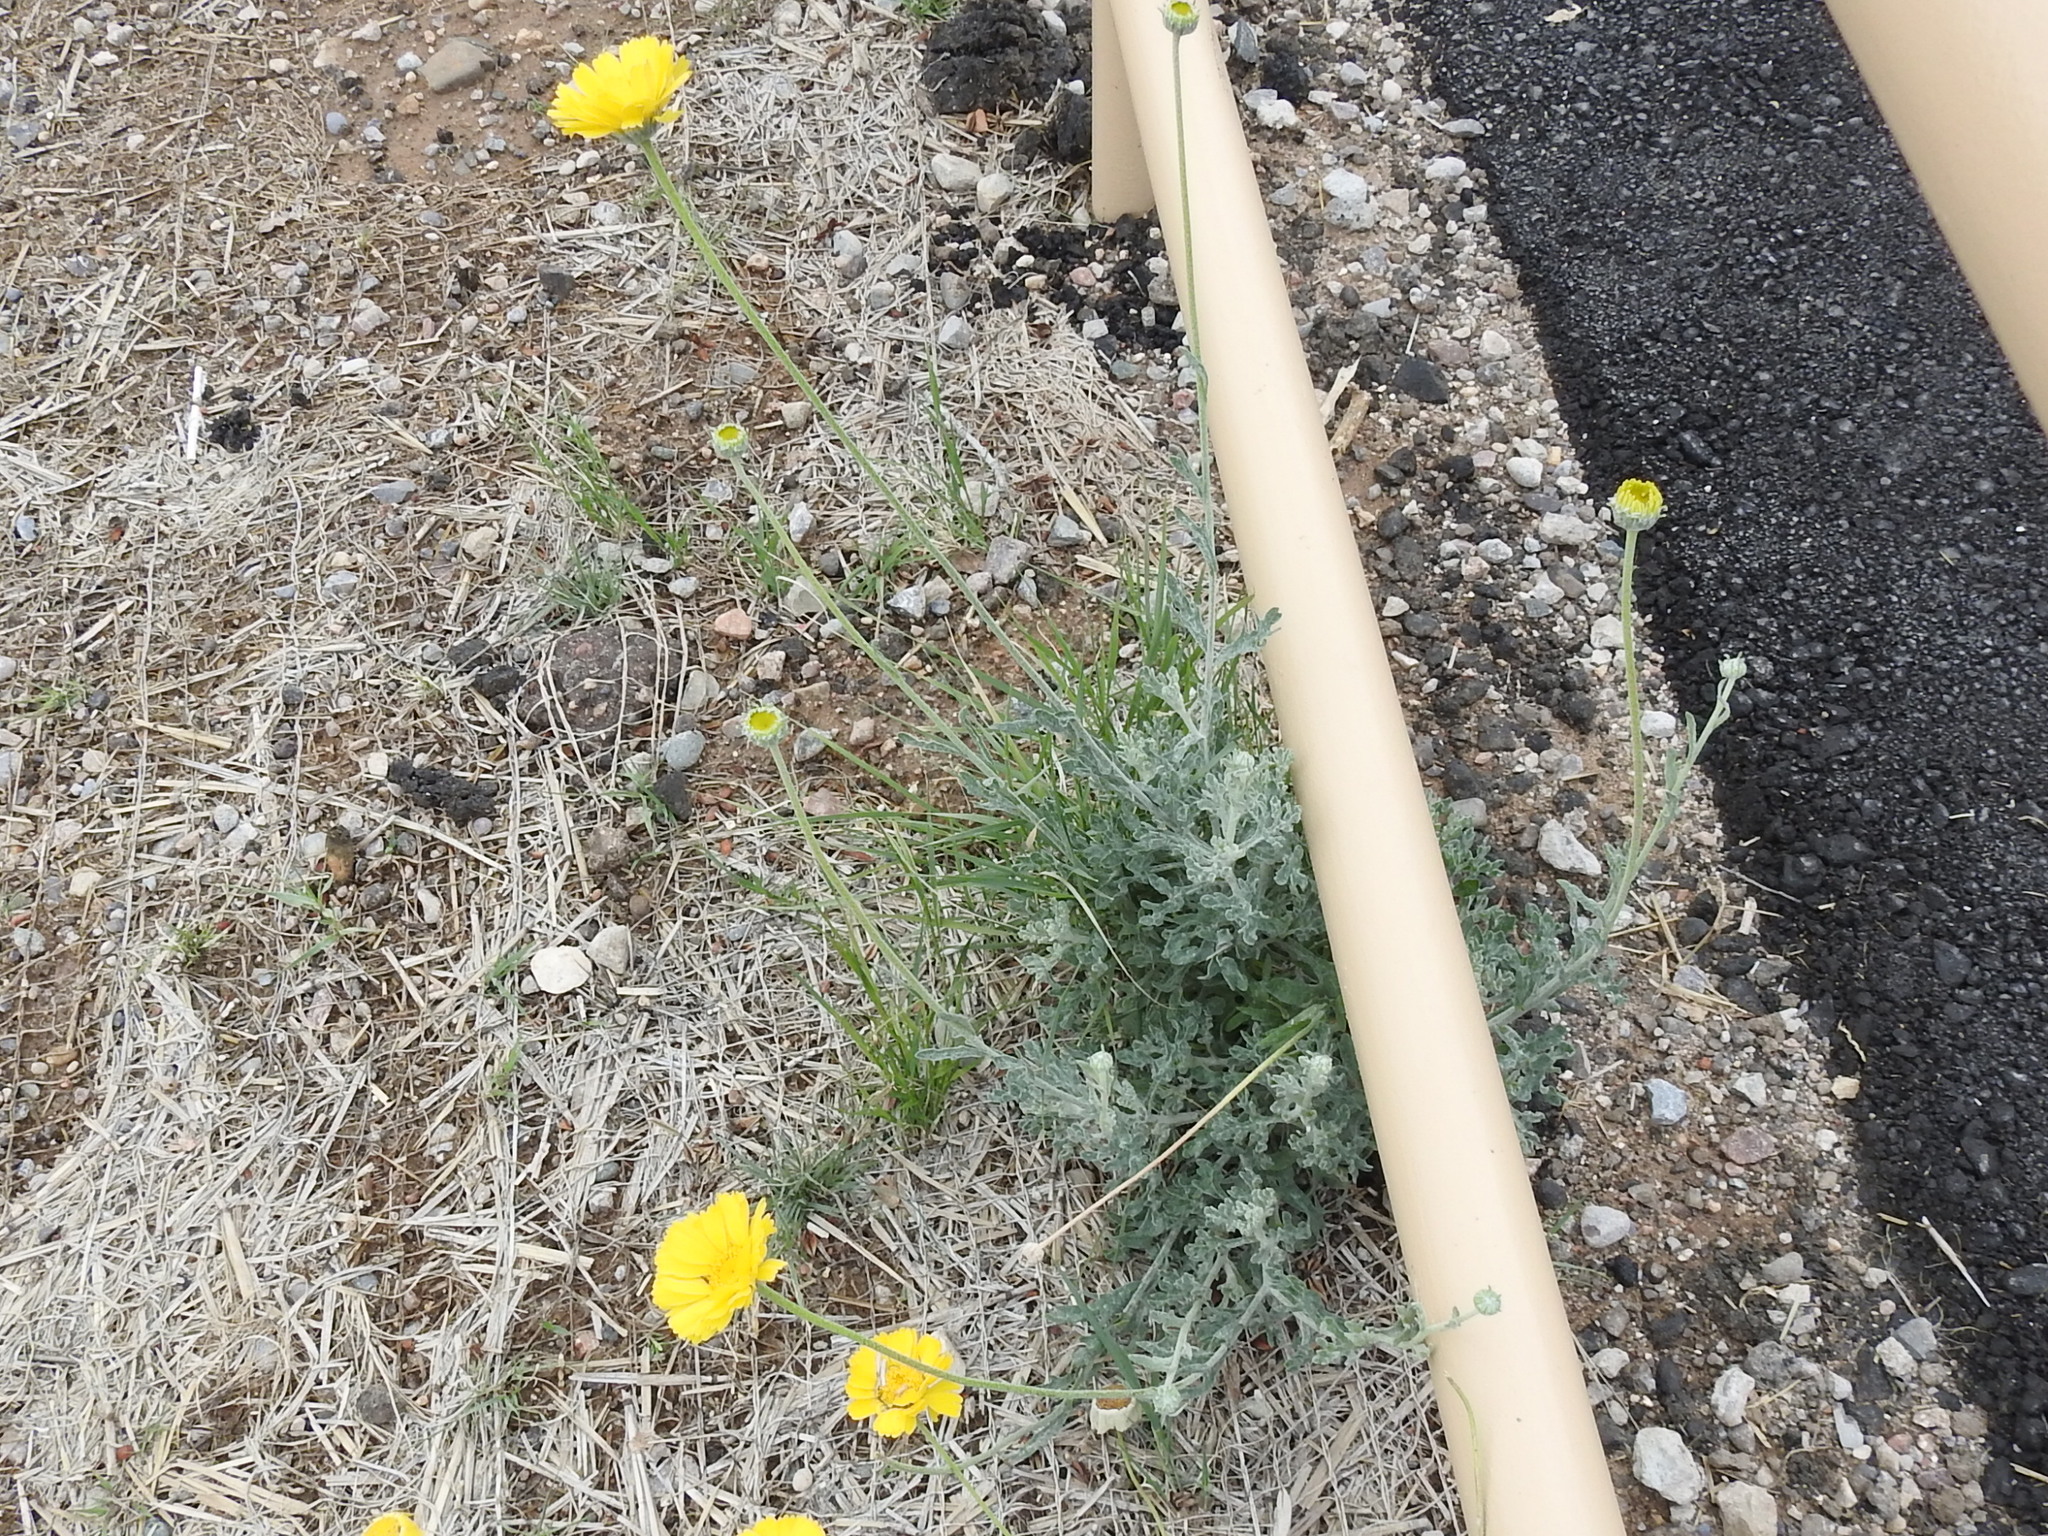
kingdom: Plantae
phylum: Tracheophyta
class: Magnoliopsida
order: Asterales
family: Asteraceae
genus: Baileya
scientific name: Baileya multiradiata
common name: Desert-marigold
